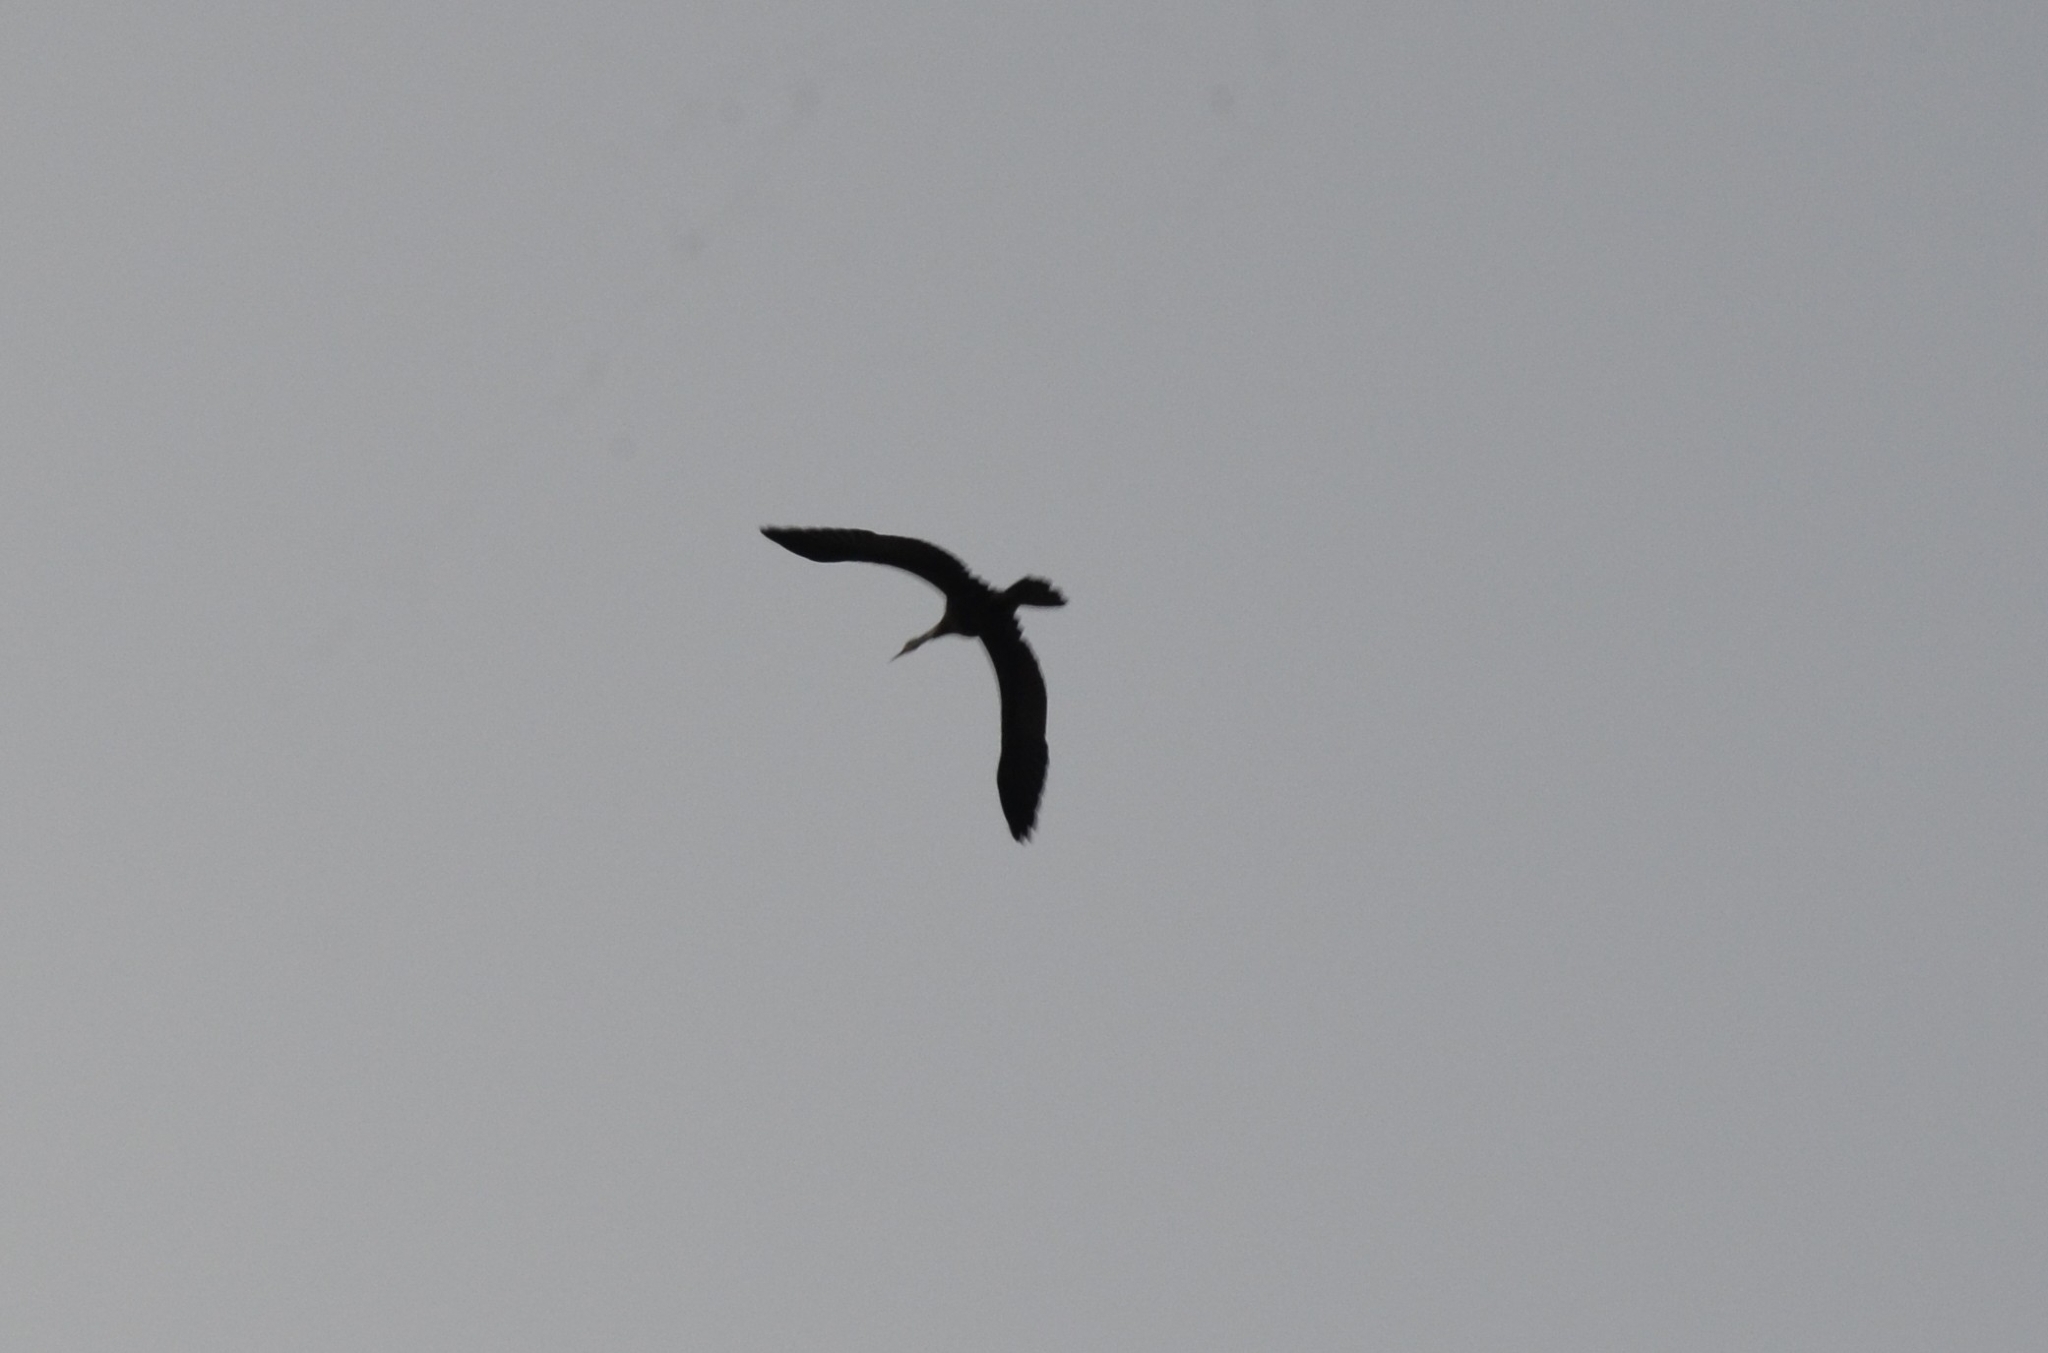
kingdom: Animalia
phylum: Chordata
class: Aves
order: Suliformes
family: Anhingidae
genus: Anhinga
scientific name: Anhinga melanogaster
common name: Oriental darter
